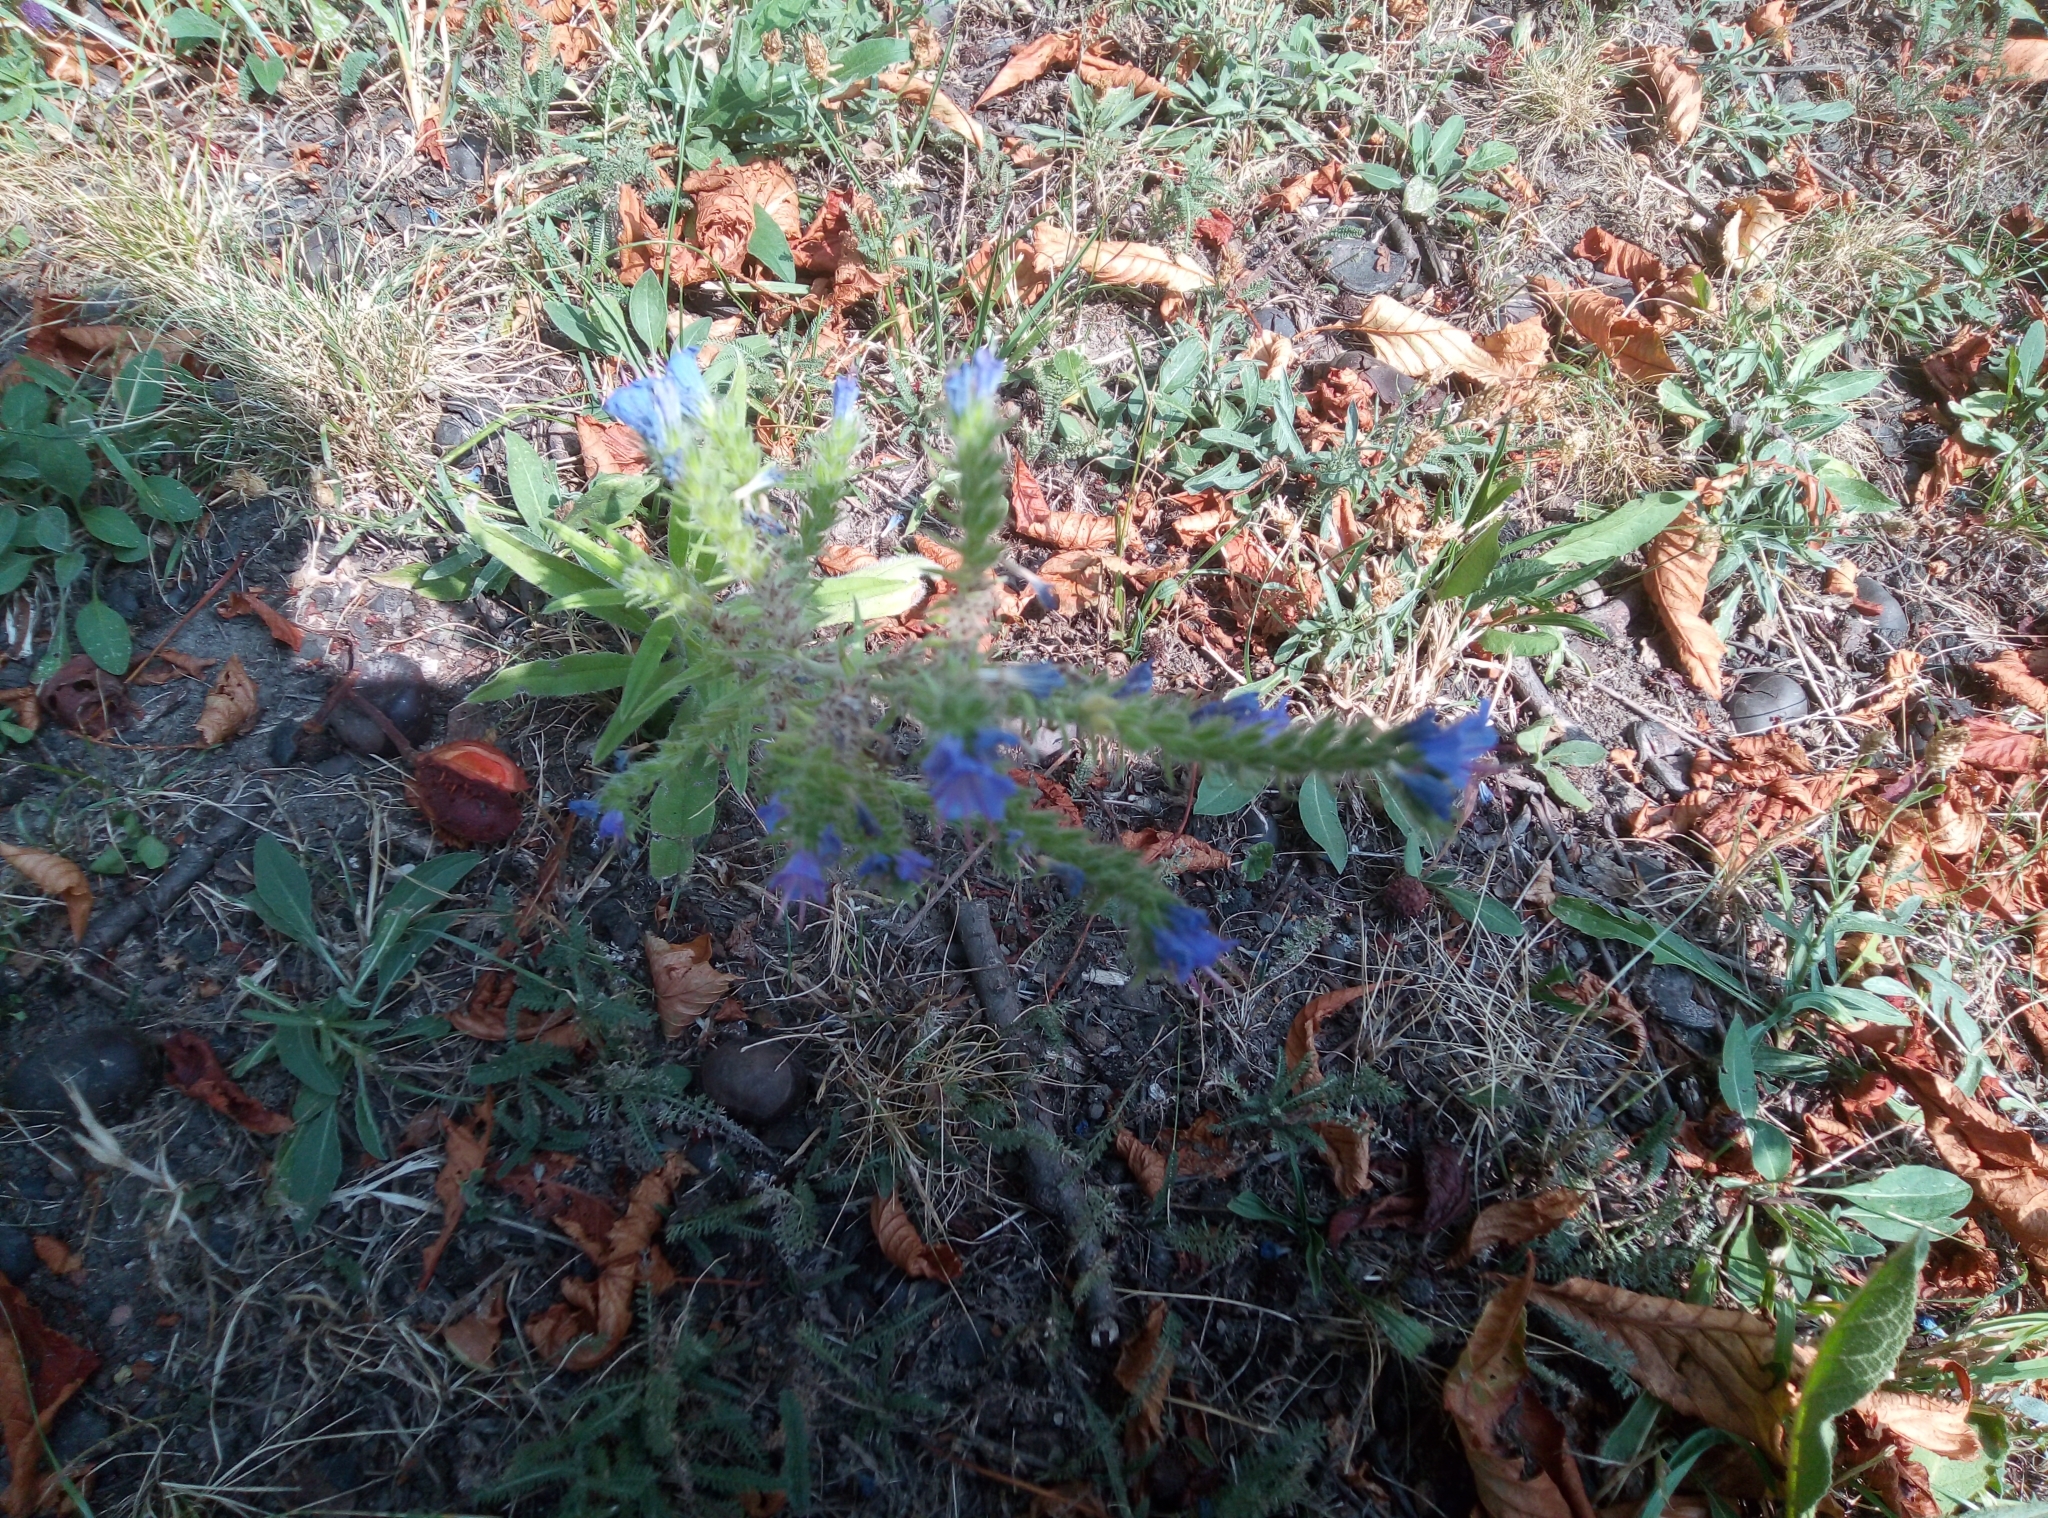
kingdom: Plantae
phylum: Tracheophyta
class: Magnoliopsida
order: Boraginales
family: Boraginaceae
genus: Echium
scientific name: Echium vulgare
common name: Common viper's bugloss
